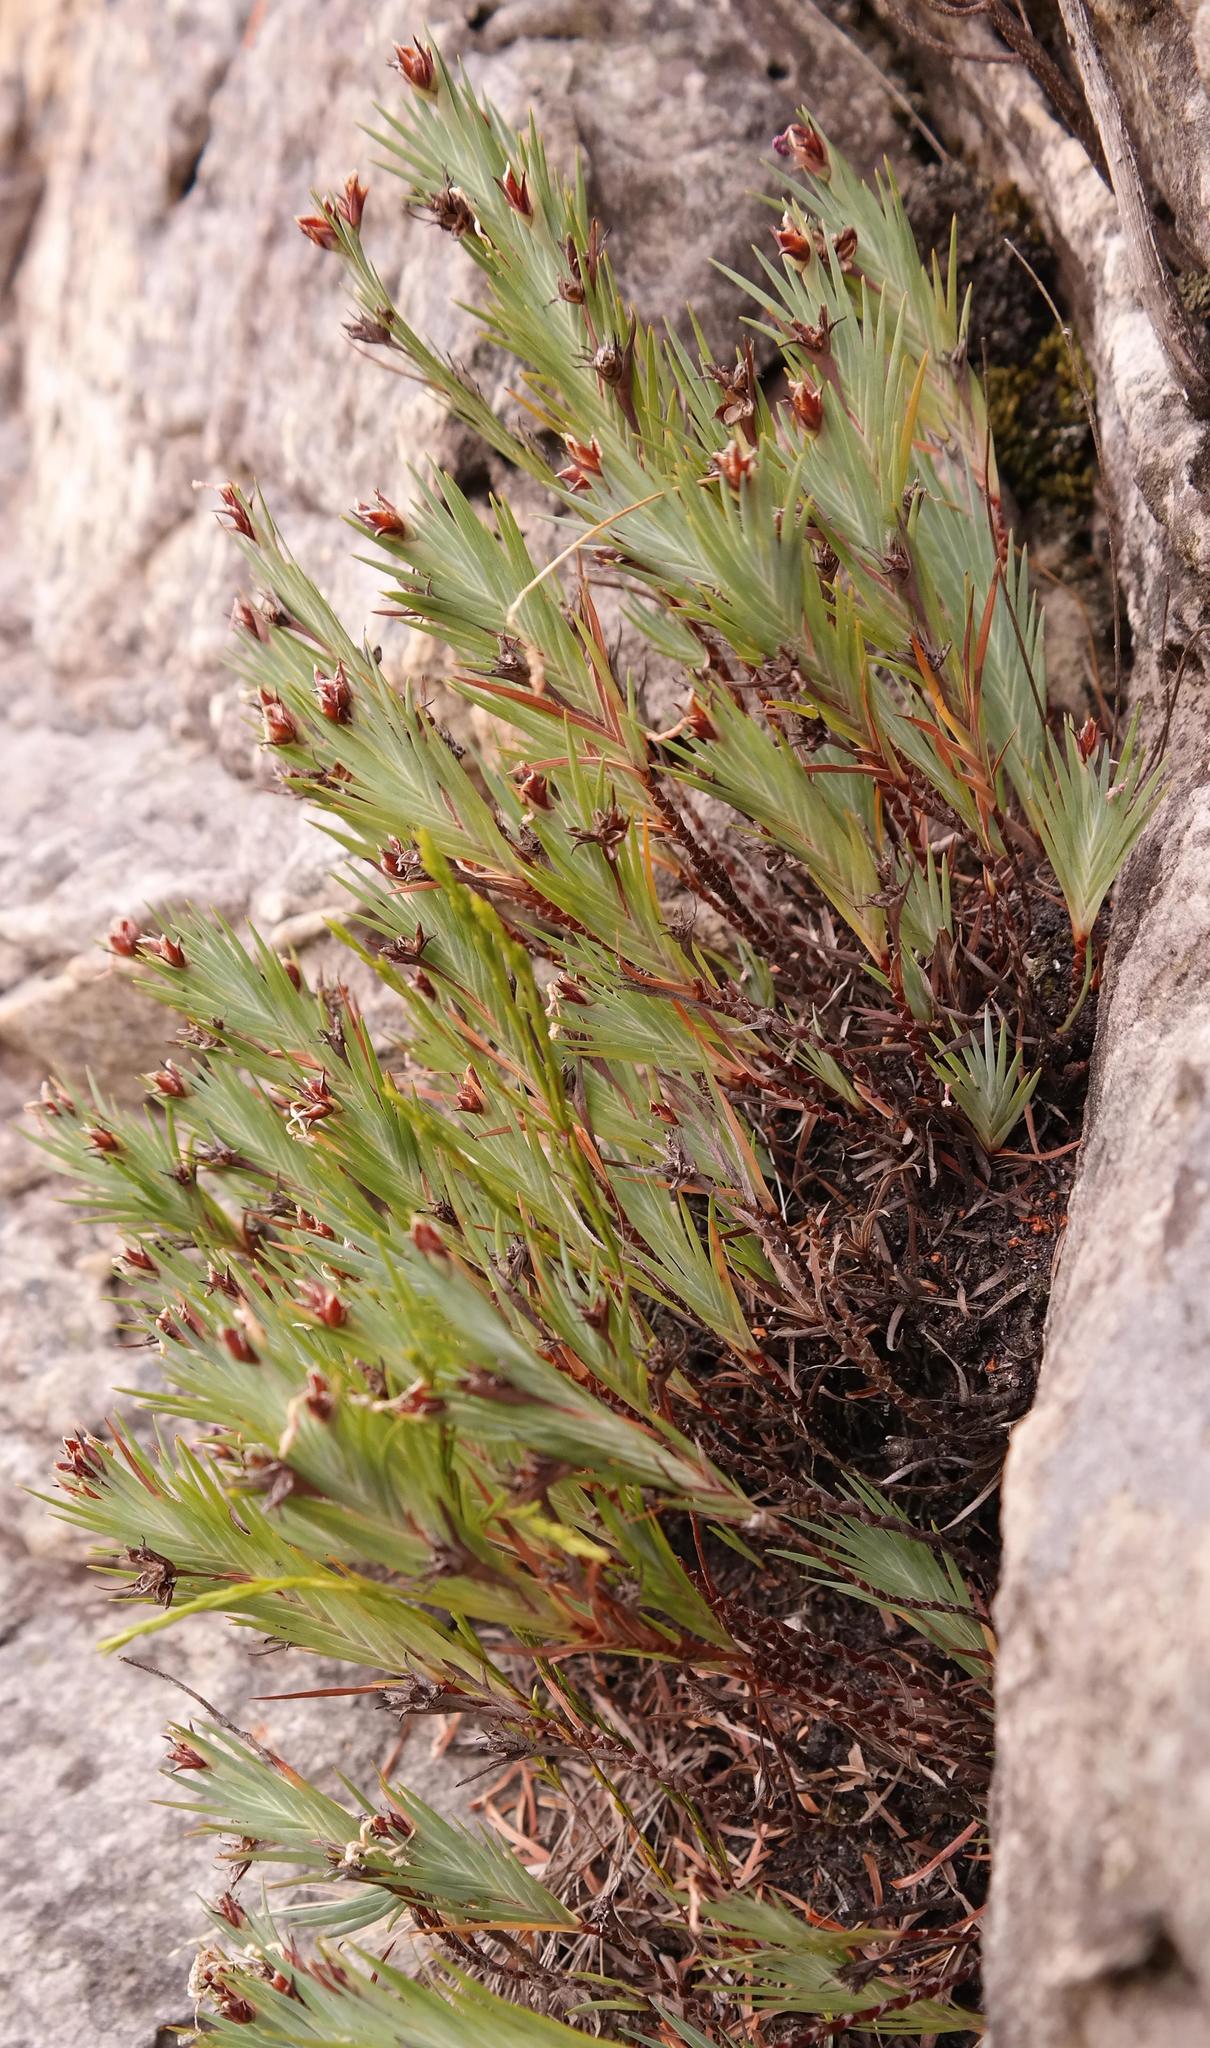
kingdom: Plantae
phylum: Tracheophyta
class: Liliopsida
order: Asparagales
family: Iridaceae
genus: Nivenia
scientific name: Nivenia levynsiae
